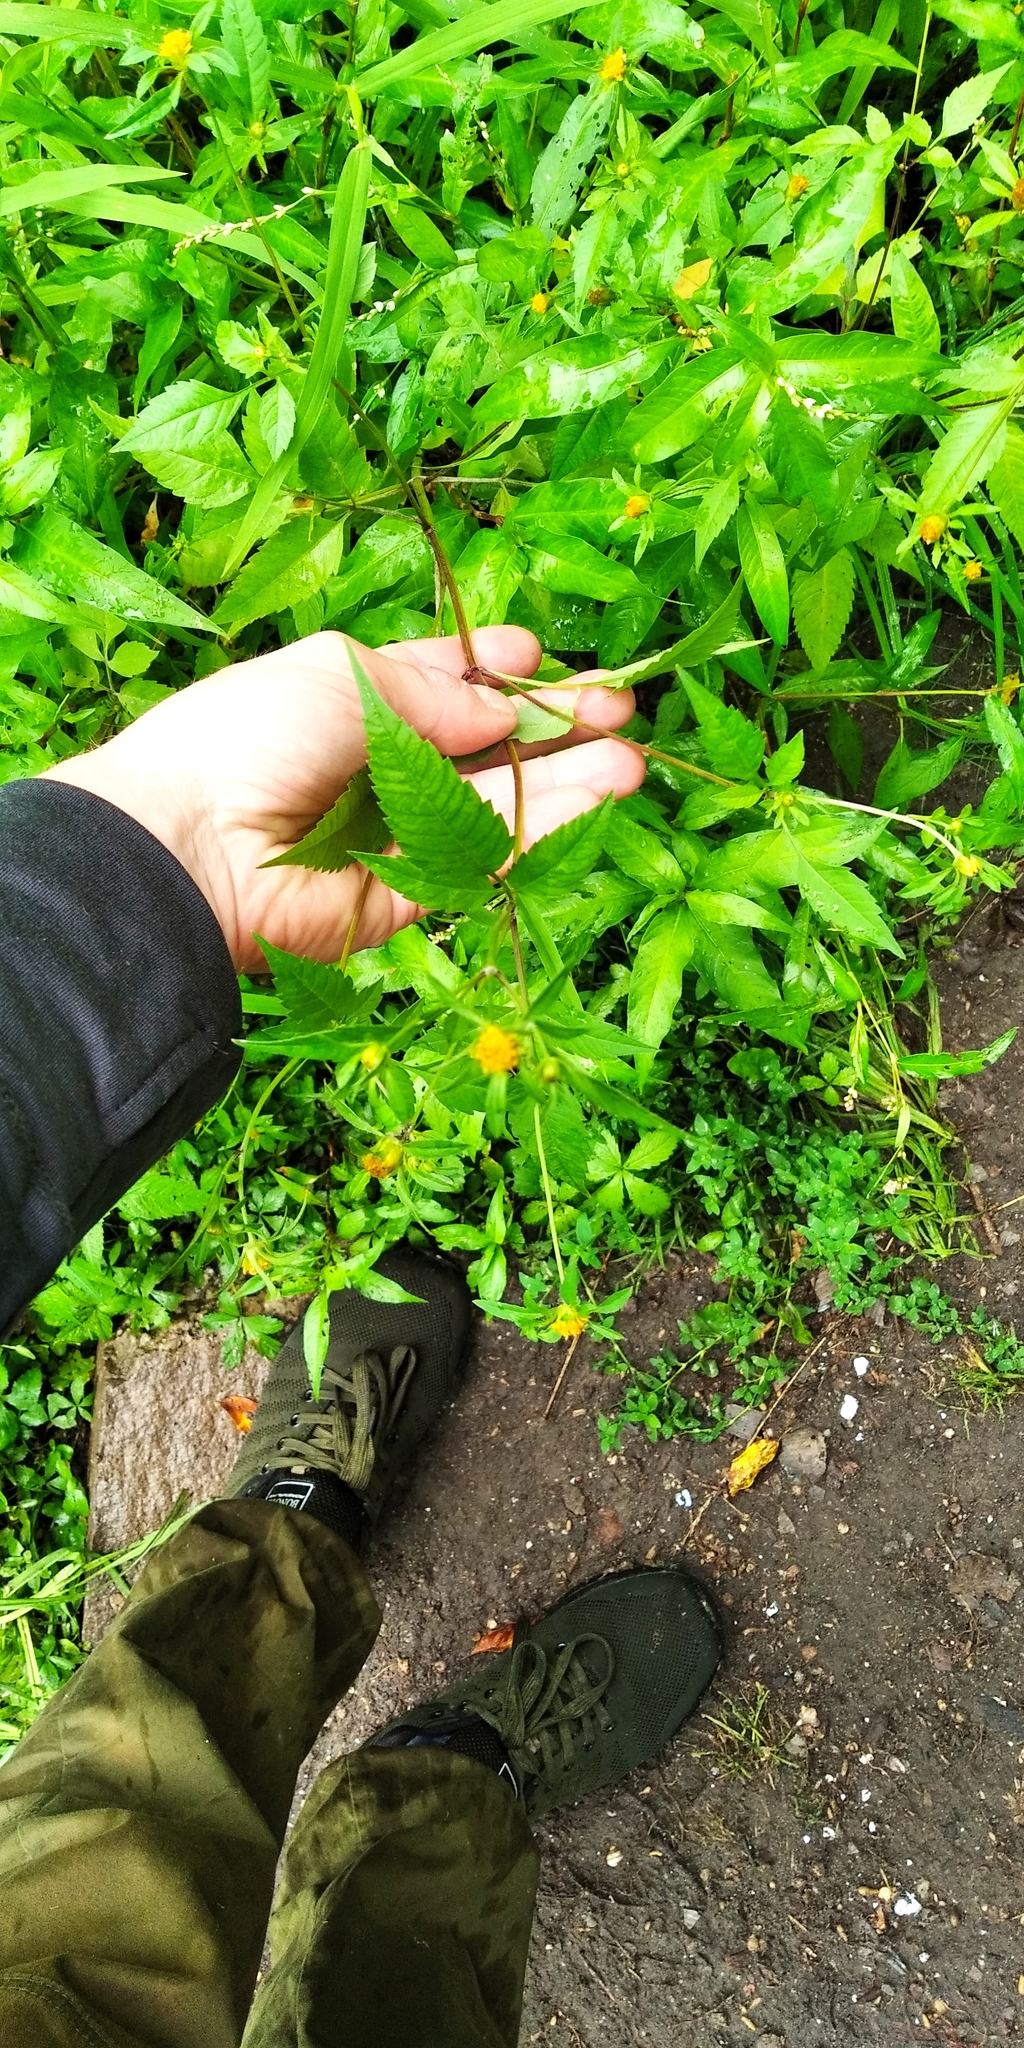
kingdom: Plantae
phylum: Tracheophyta
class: Magnoliopsida
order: Asterales
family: Asteraceae
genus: Bidens
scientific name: Bidens frondosa
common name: Beggarticks
